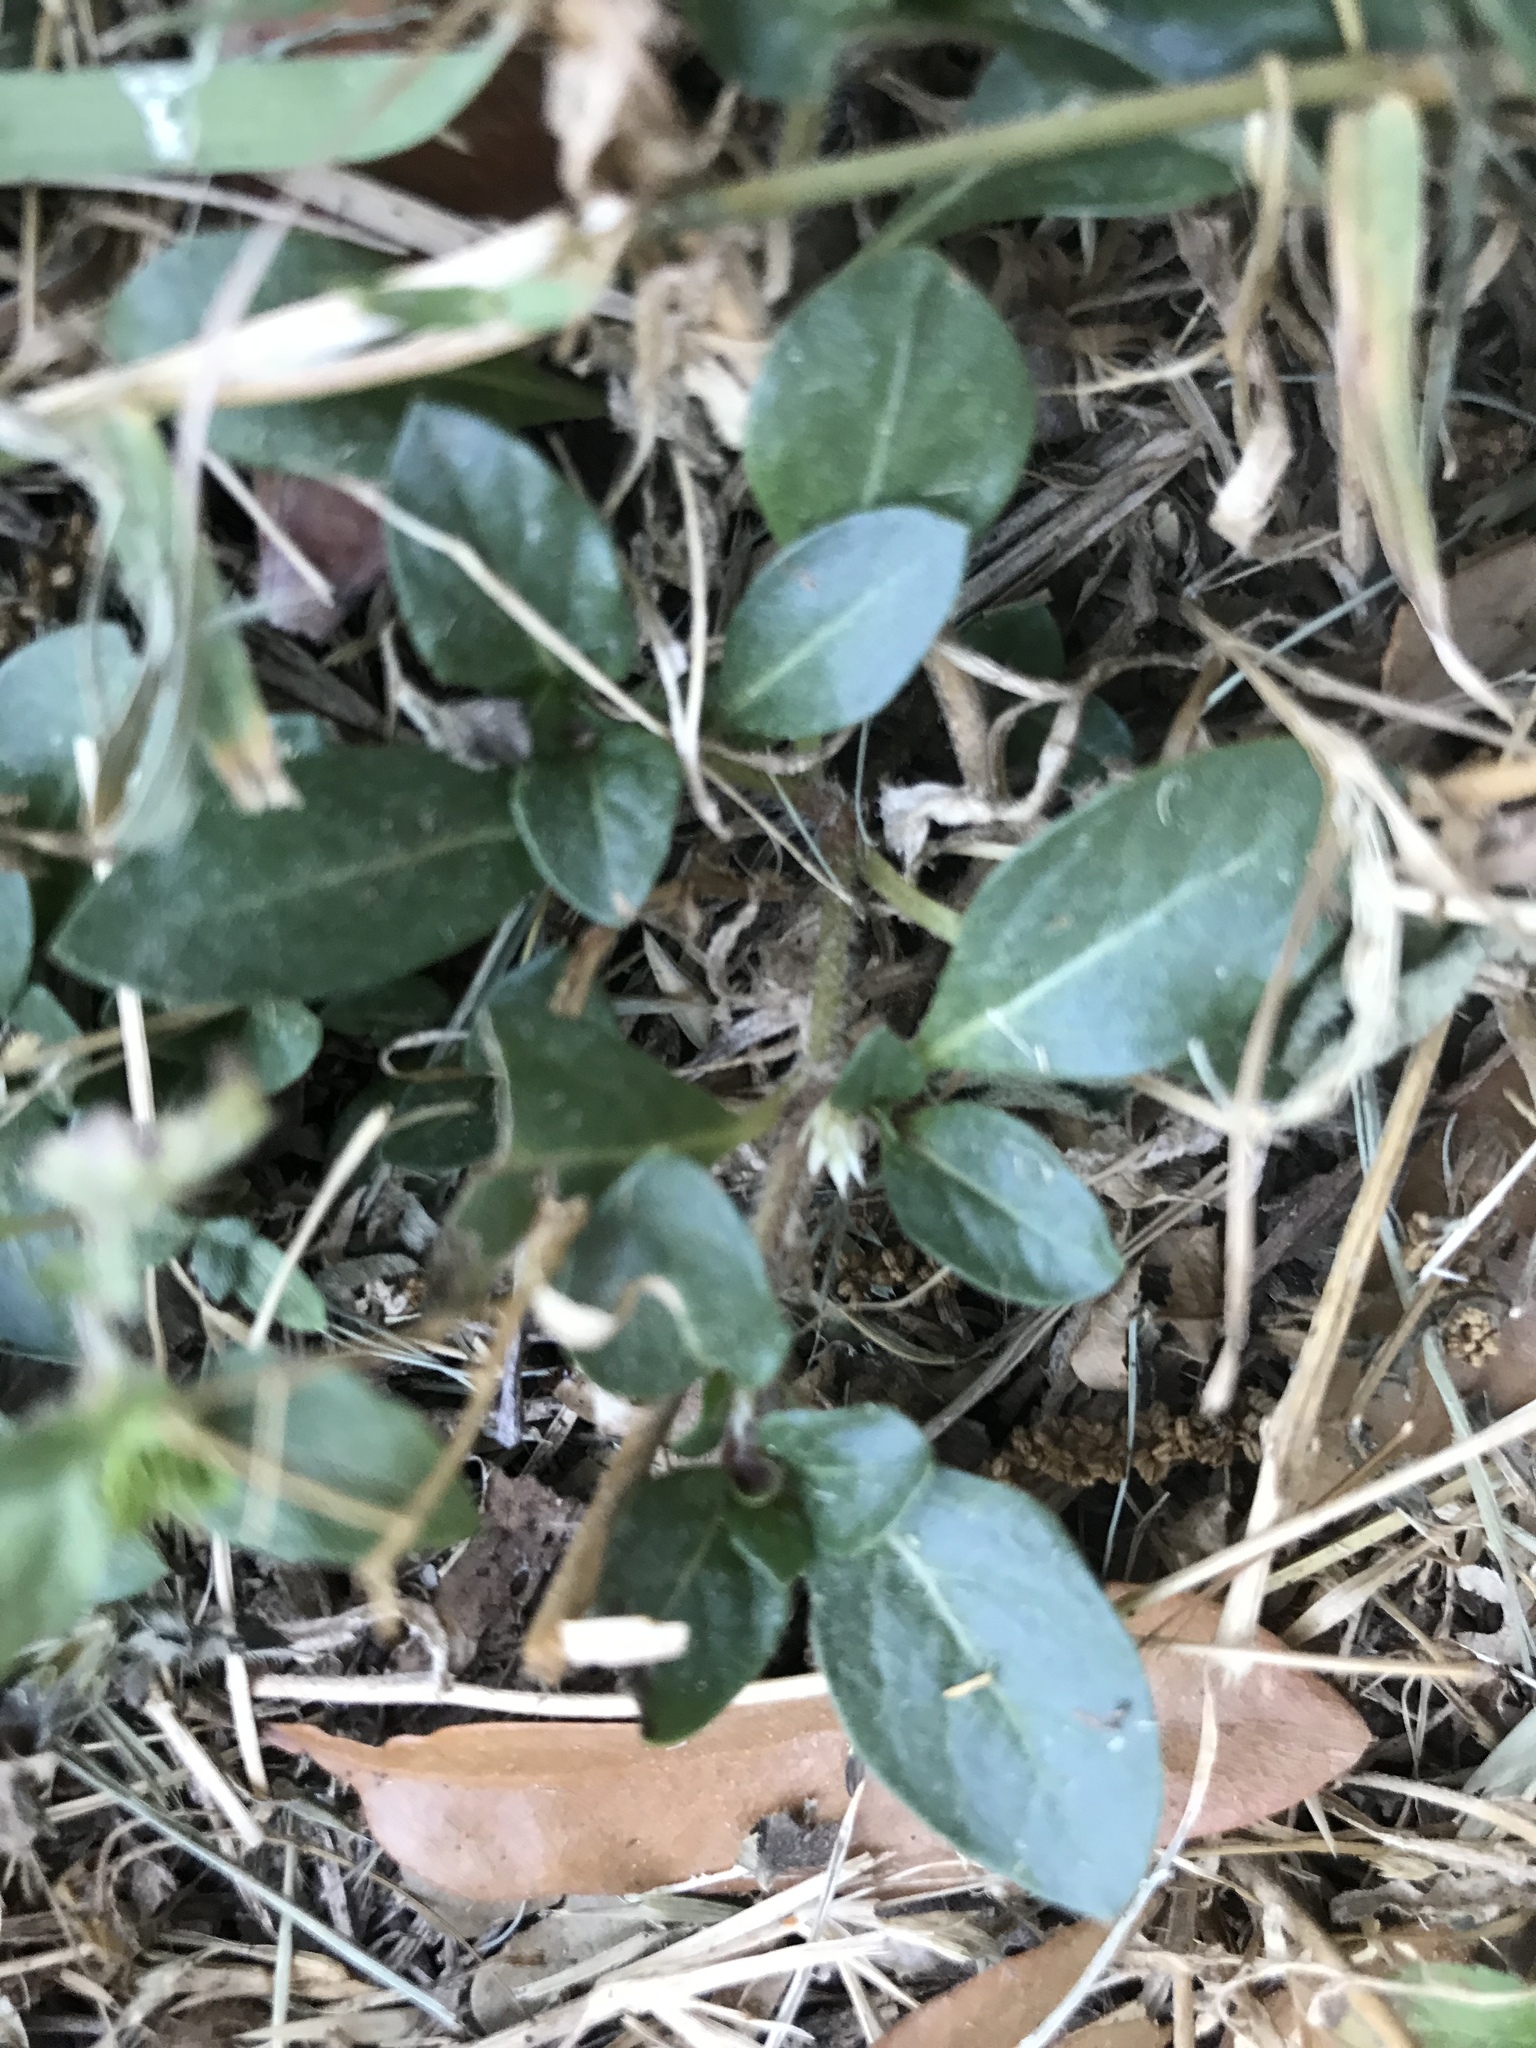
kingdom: Plantae
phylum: Tracheophyta
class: Magnoliopsida
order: Caryophyllales
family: Amaranthaceae
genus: Alternanthera
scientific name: Alternanthera caracasana
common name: Washerwoman
